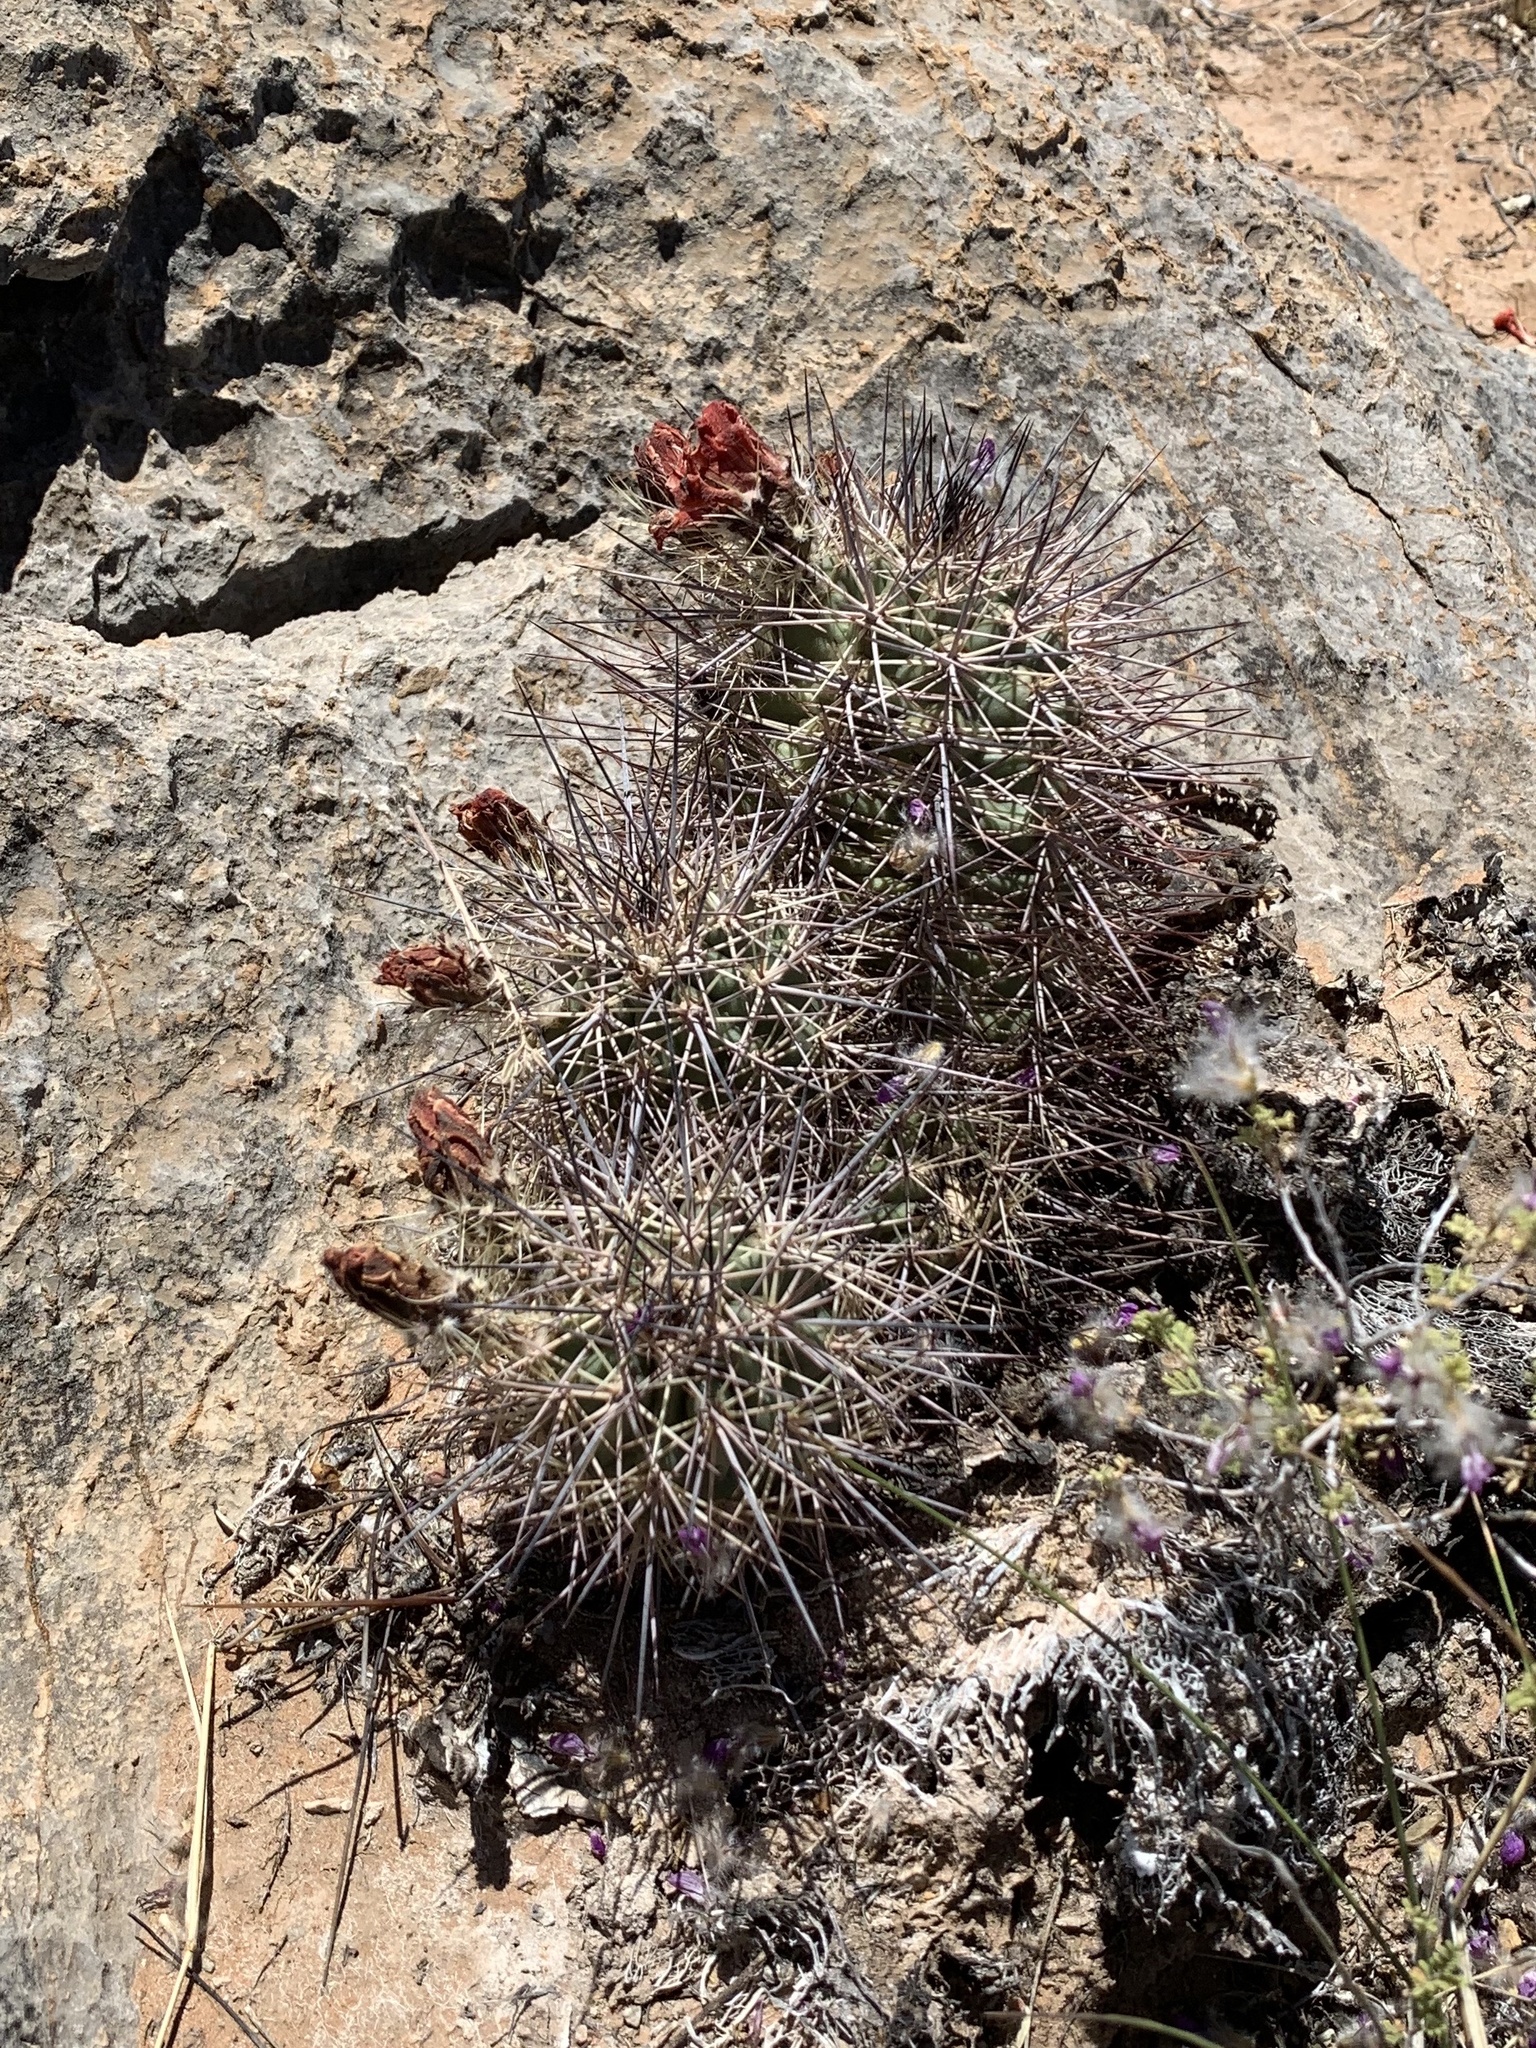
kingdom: Plantae
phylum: Tracheophyta
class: Magnoliopsida
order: Caryophyllales
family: Cactaceae
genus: Echinocereus
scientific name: Echinocereus coccineus
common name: Scarlet hedgehog cactus
